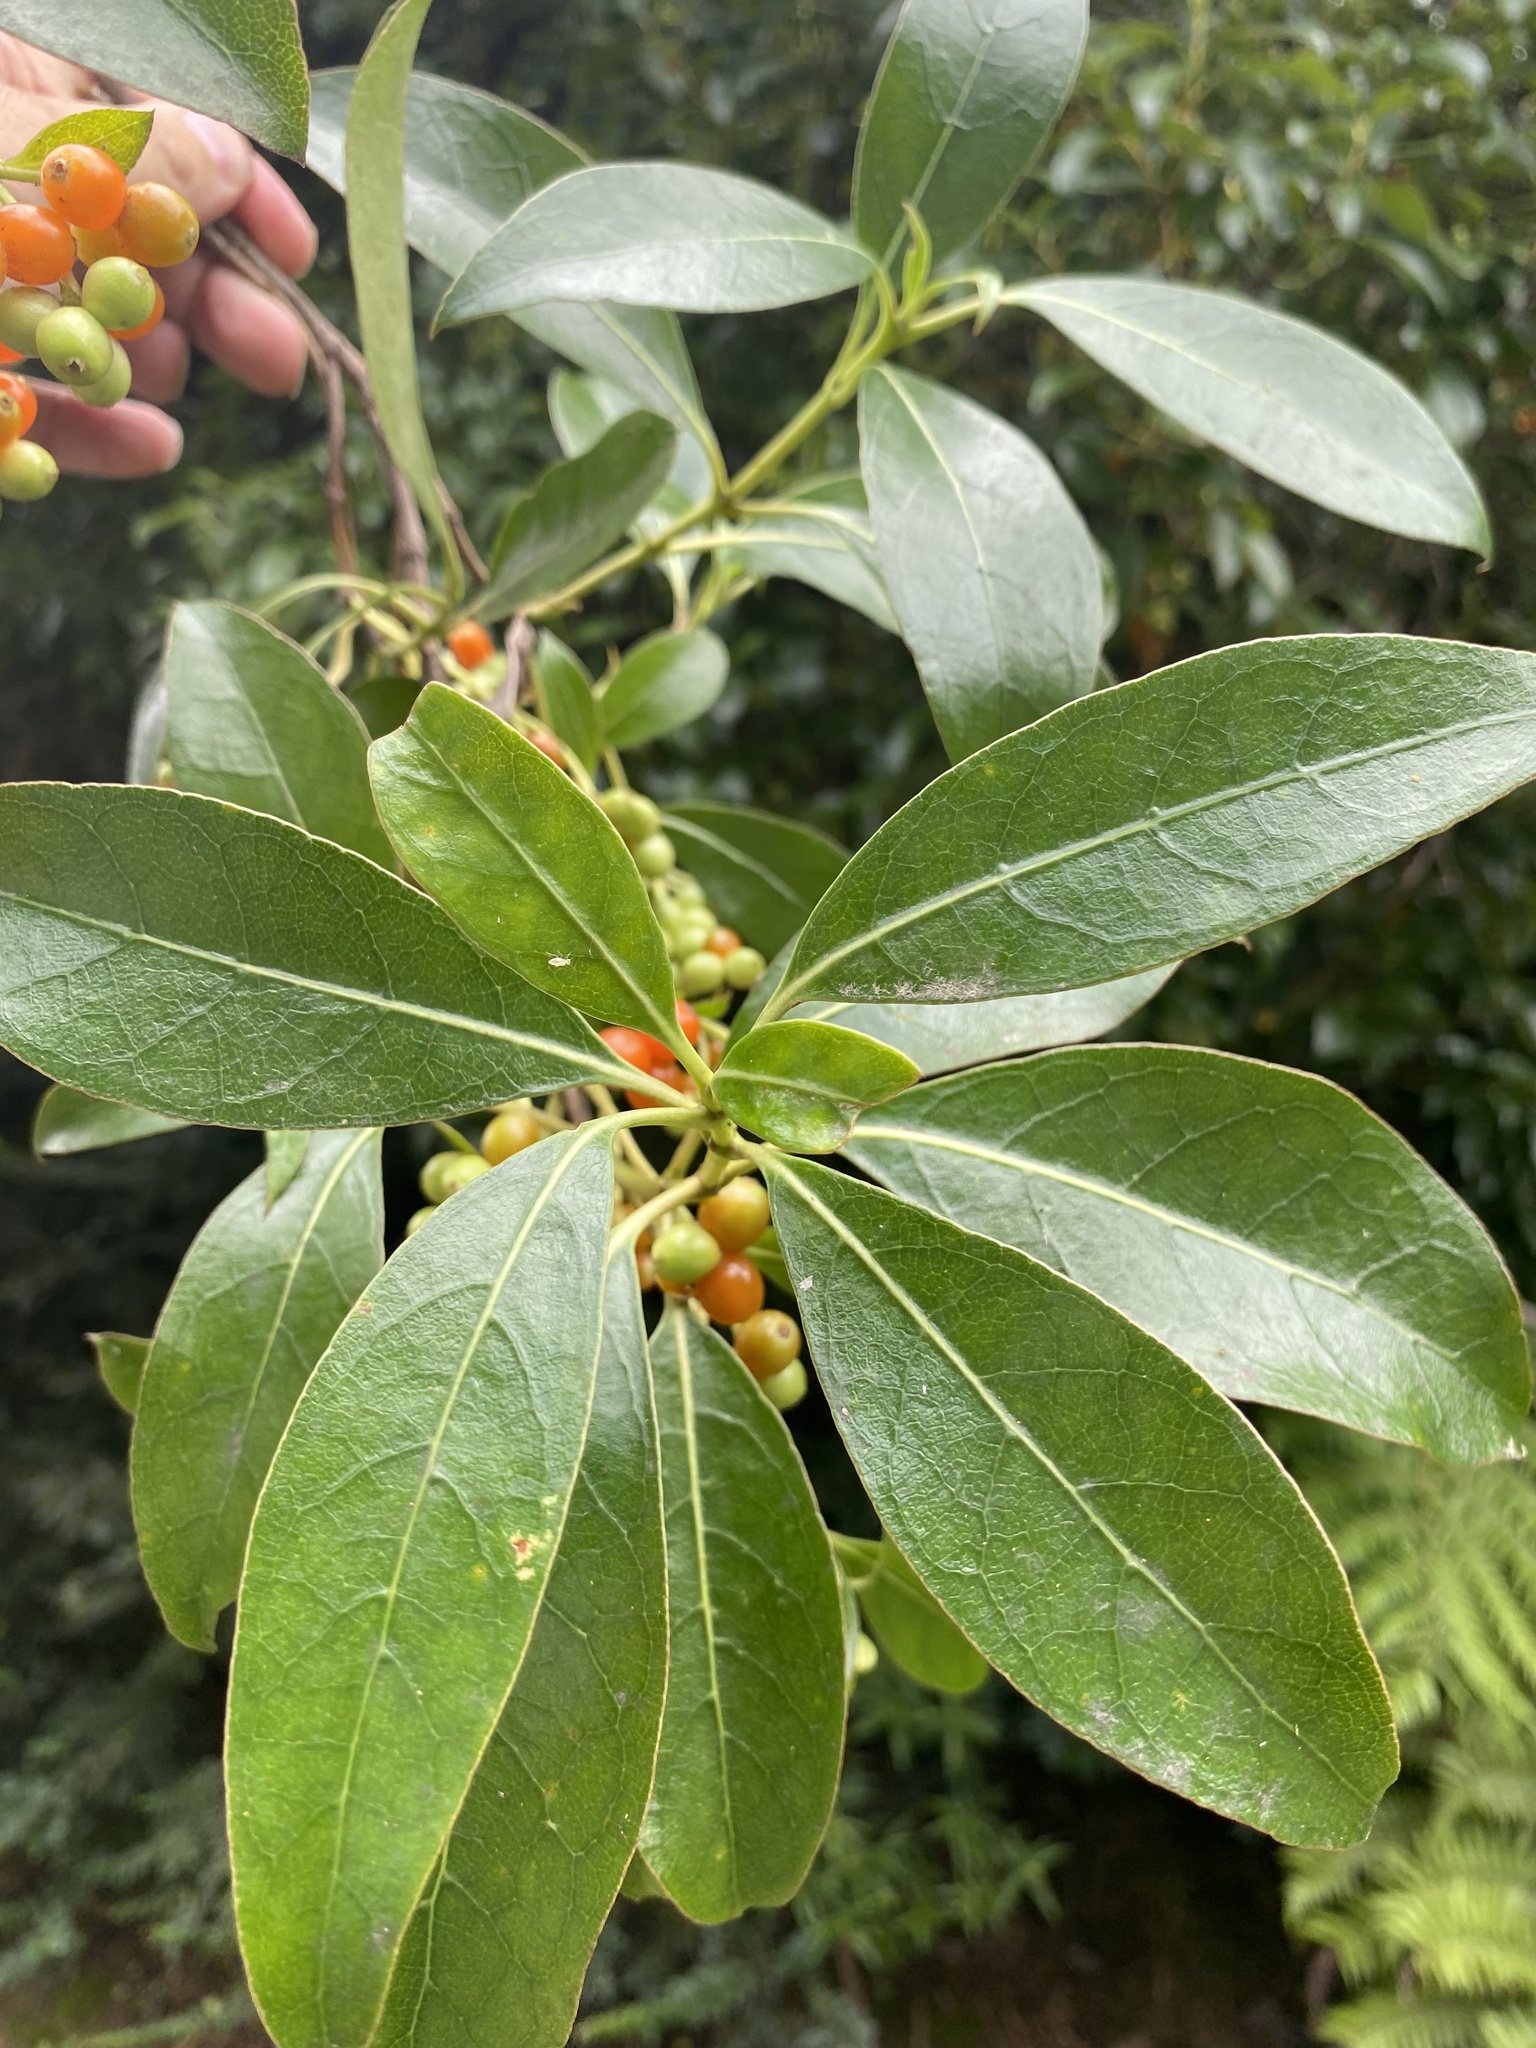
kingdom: Plantae
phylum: Tracheophyta
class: Magnoliopsida
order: Gentianales
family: Rubiaceae
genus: Coprosma
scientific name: Coprosma lucida
